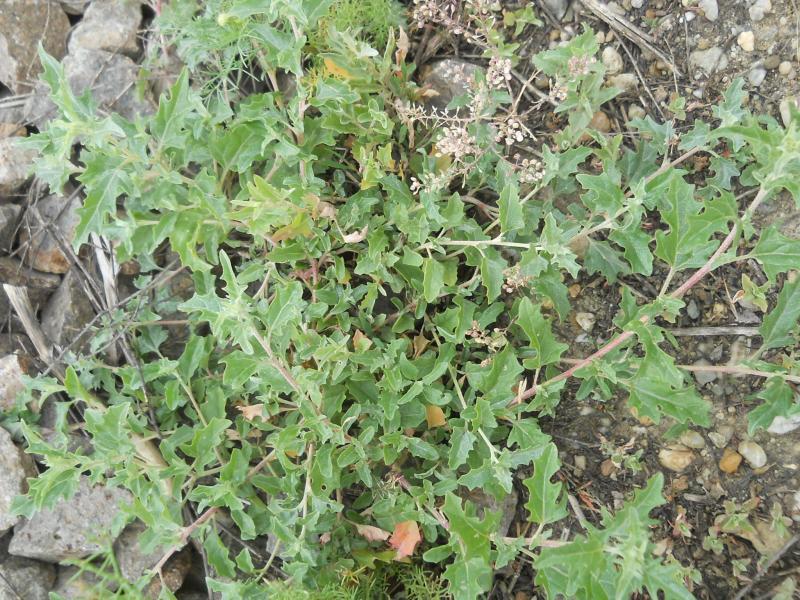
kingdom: Plantae
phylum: Tracheophyta
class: Magnoliopsida
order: Caryophyllales
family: Amaranthaceae
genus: Atriplex
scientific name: Atriplex tatarica
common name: Tatarian orache
